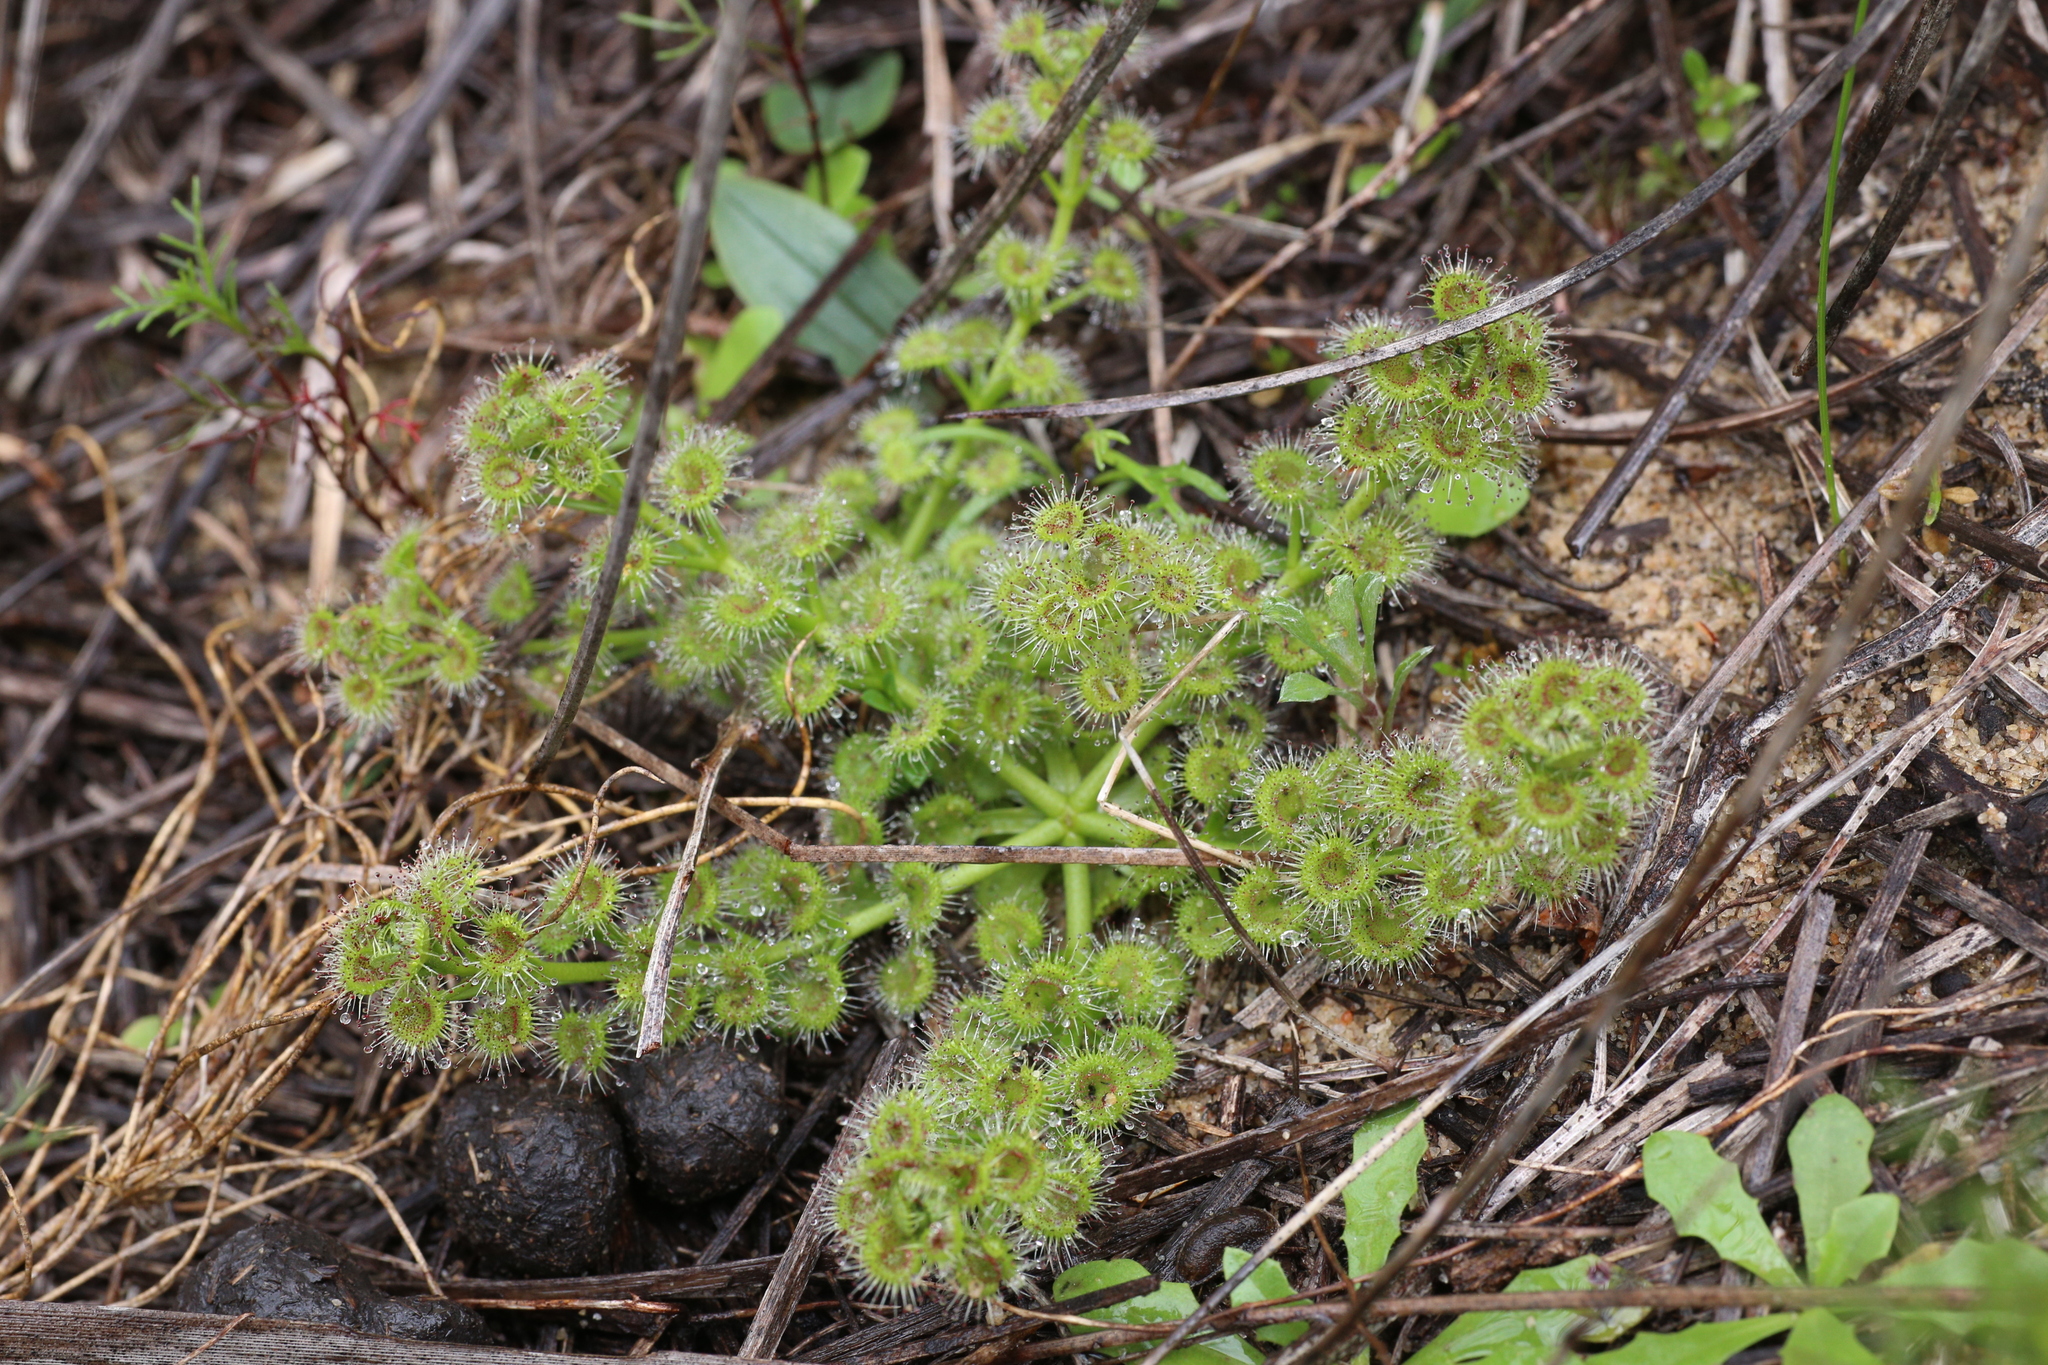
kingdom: Plantae
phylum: Tracheophyta
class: Magnoliopsida
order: Caryophyllales
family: Droseraceae
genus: Drosera
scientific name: Drosera stolonifera
